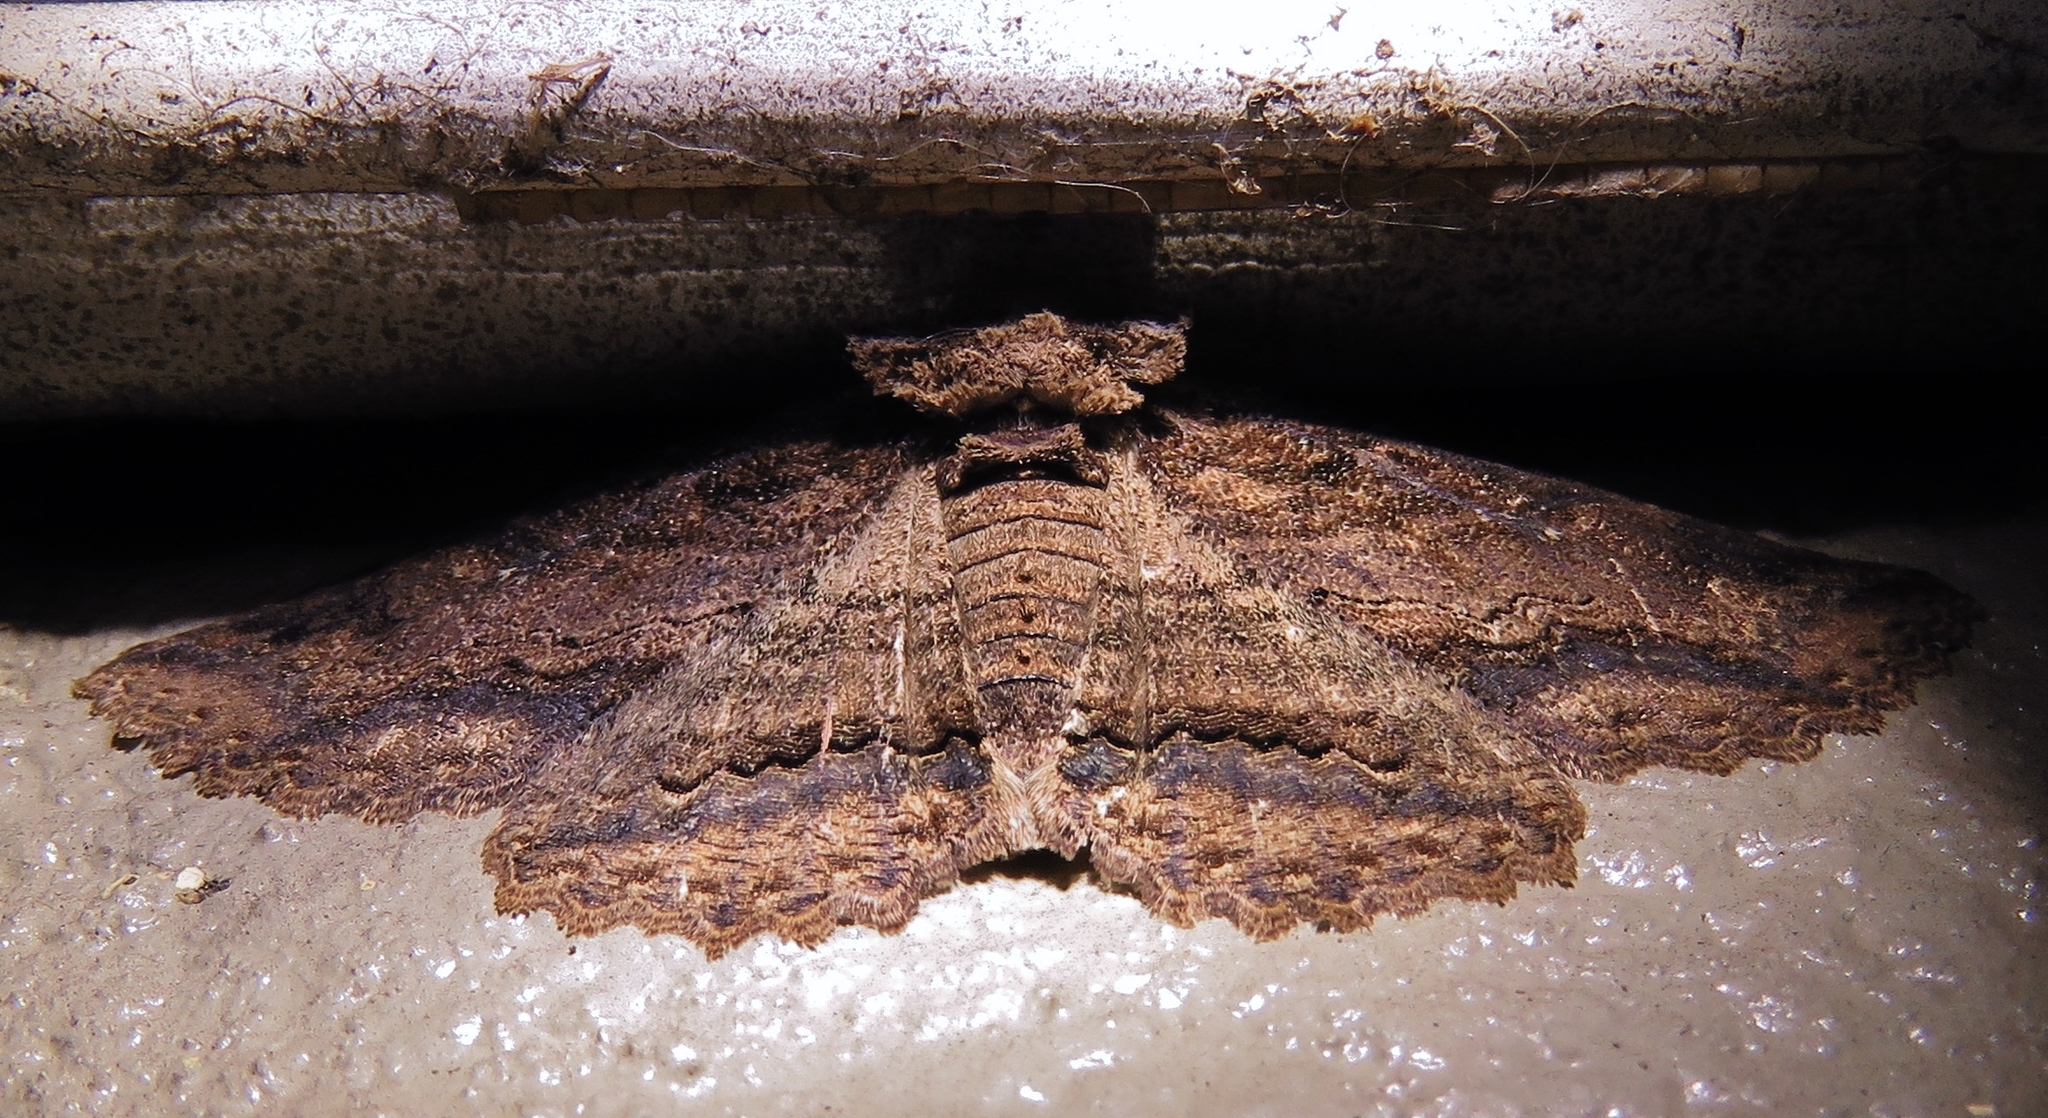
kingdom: Animalia
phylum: Arthropoda
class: Insecta
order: Lepidoptera
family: Erebidae
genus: Zale
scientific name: Zale lunata
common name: Lunate zale moth
